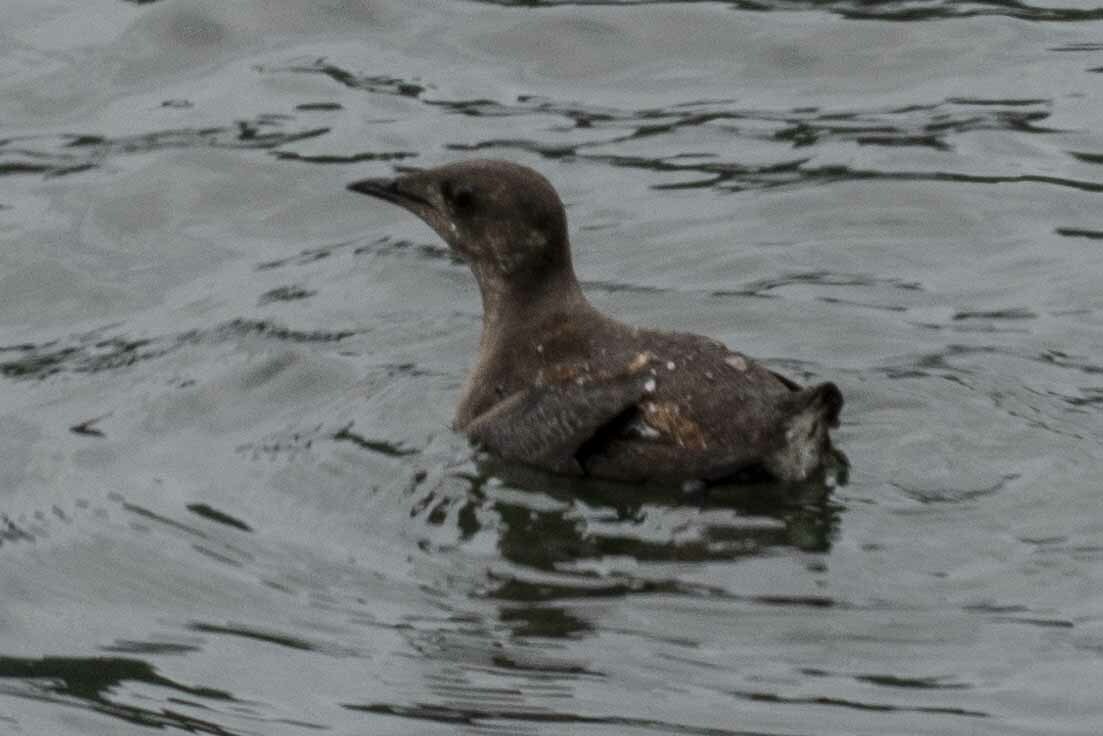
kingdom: Animalia
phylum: Chordata
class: Aves
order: Charadriiformes
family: Alcidae
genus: Brachyramphus
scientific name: Brachyramphus marmoratus
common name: Marbled murrelet
